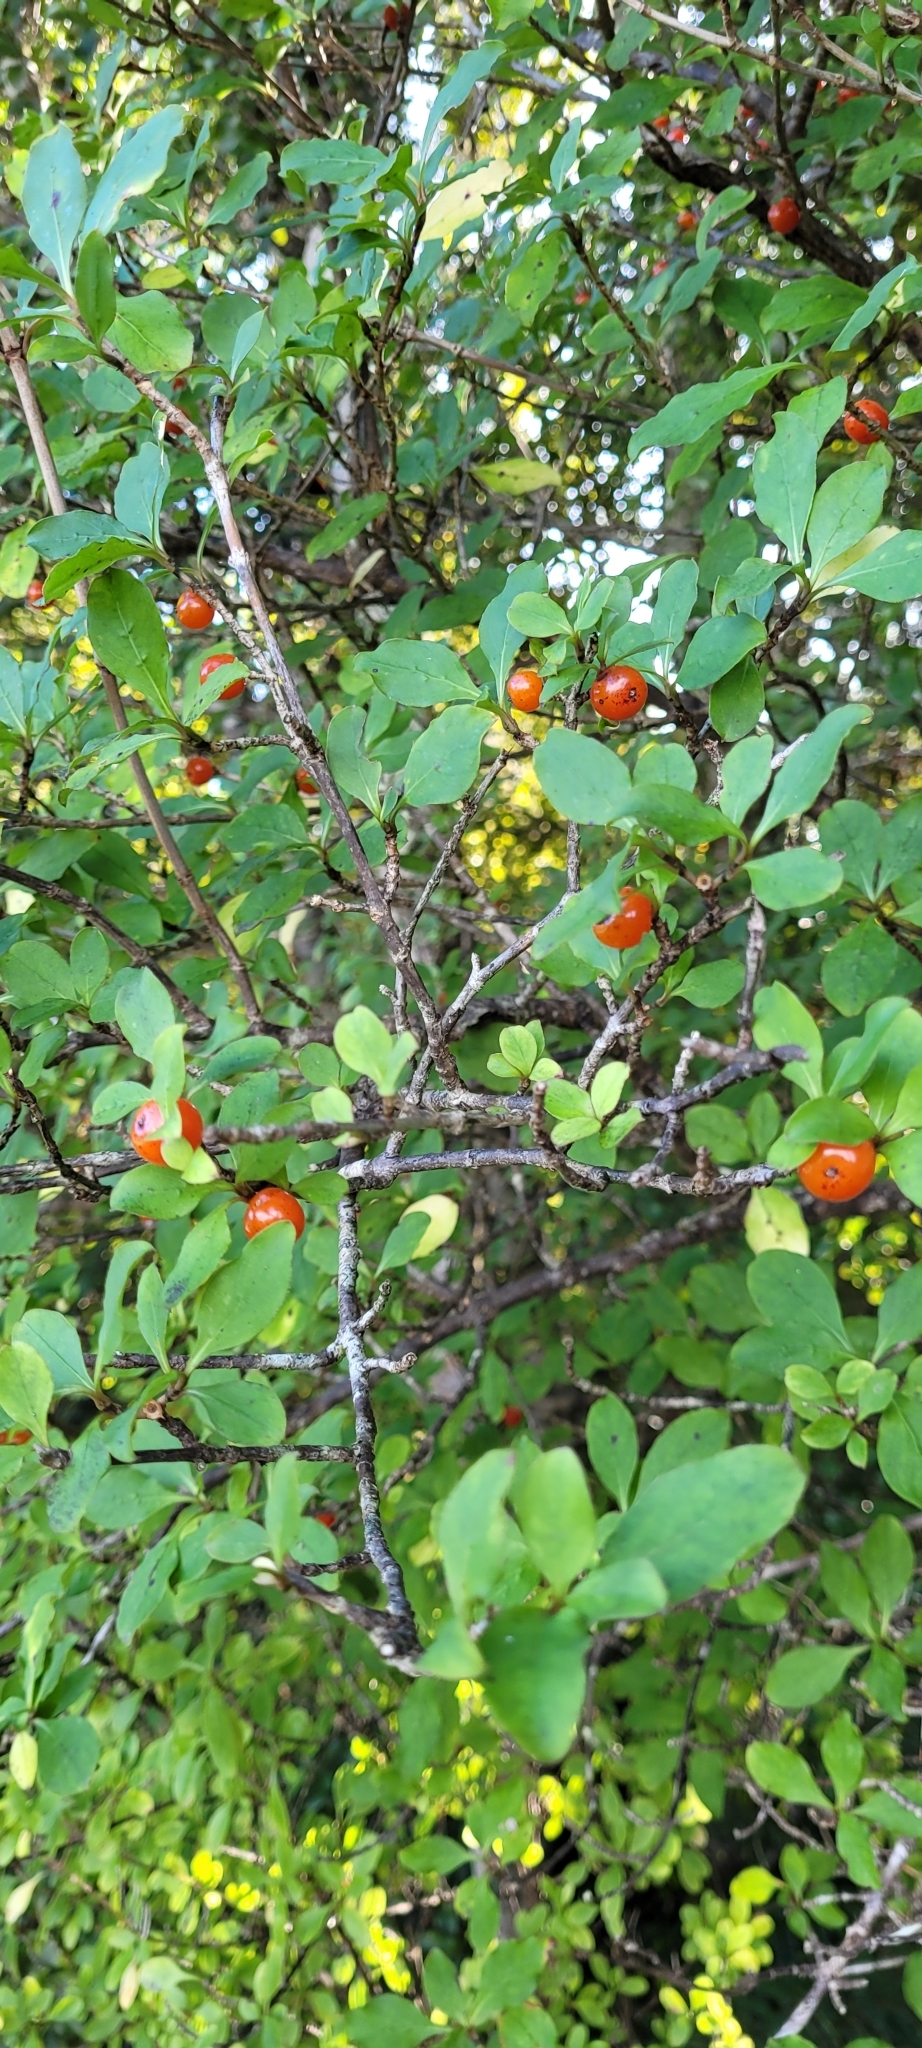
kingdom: Plantae
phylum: Tracheophyta
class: Magnoliopsida
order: Gentianales
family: Rubiaceae
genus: Coprosma
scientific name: Coprosma foetidissima
